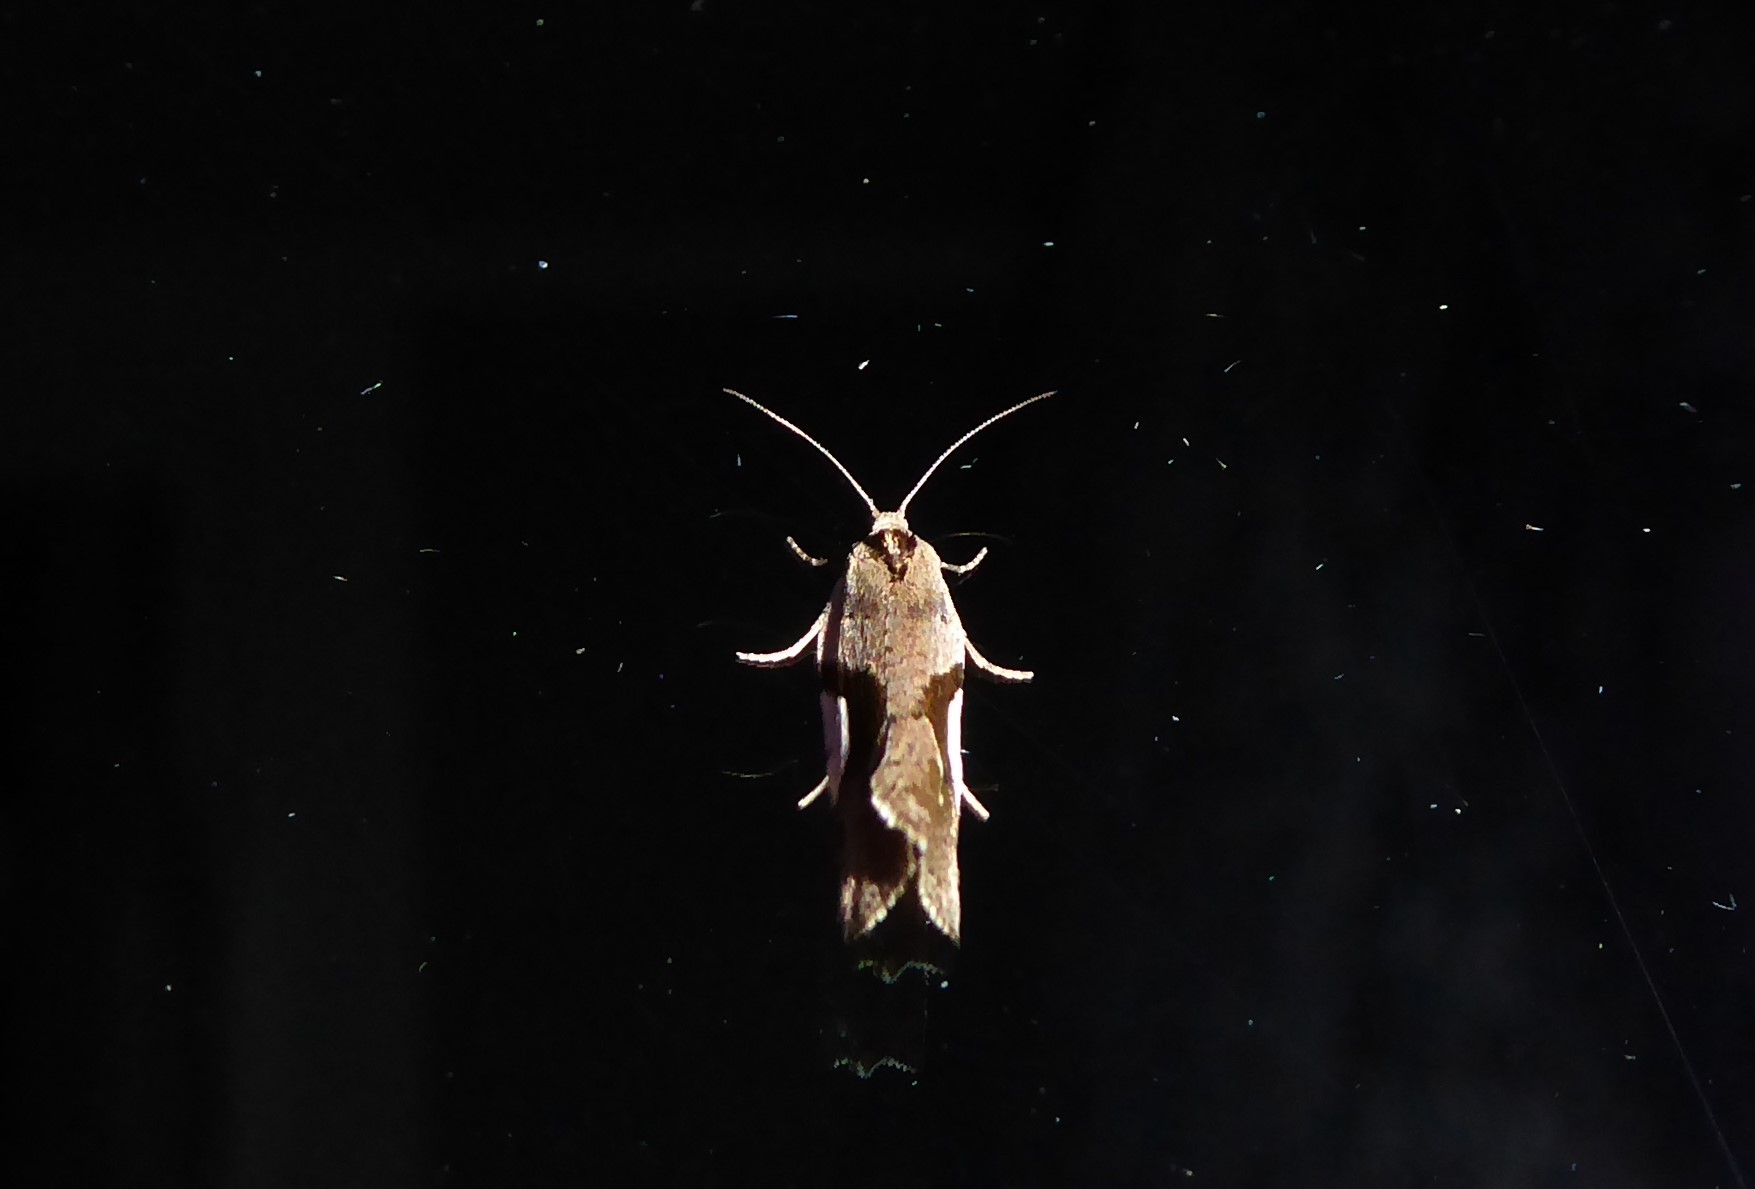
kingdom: Animalia
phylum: Arthropoda
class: Insecta
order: Lepidoptera
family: Tortricidae
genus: Pyrgotis
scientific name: Pyrgotis plagiatana
